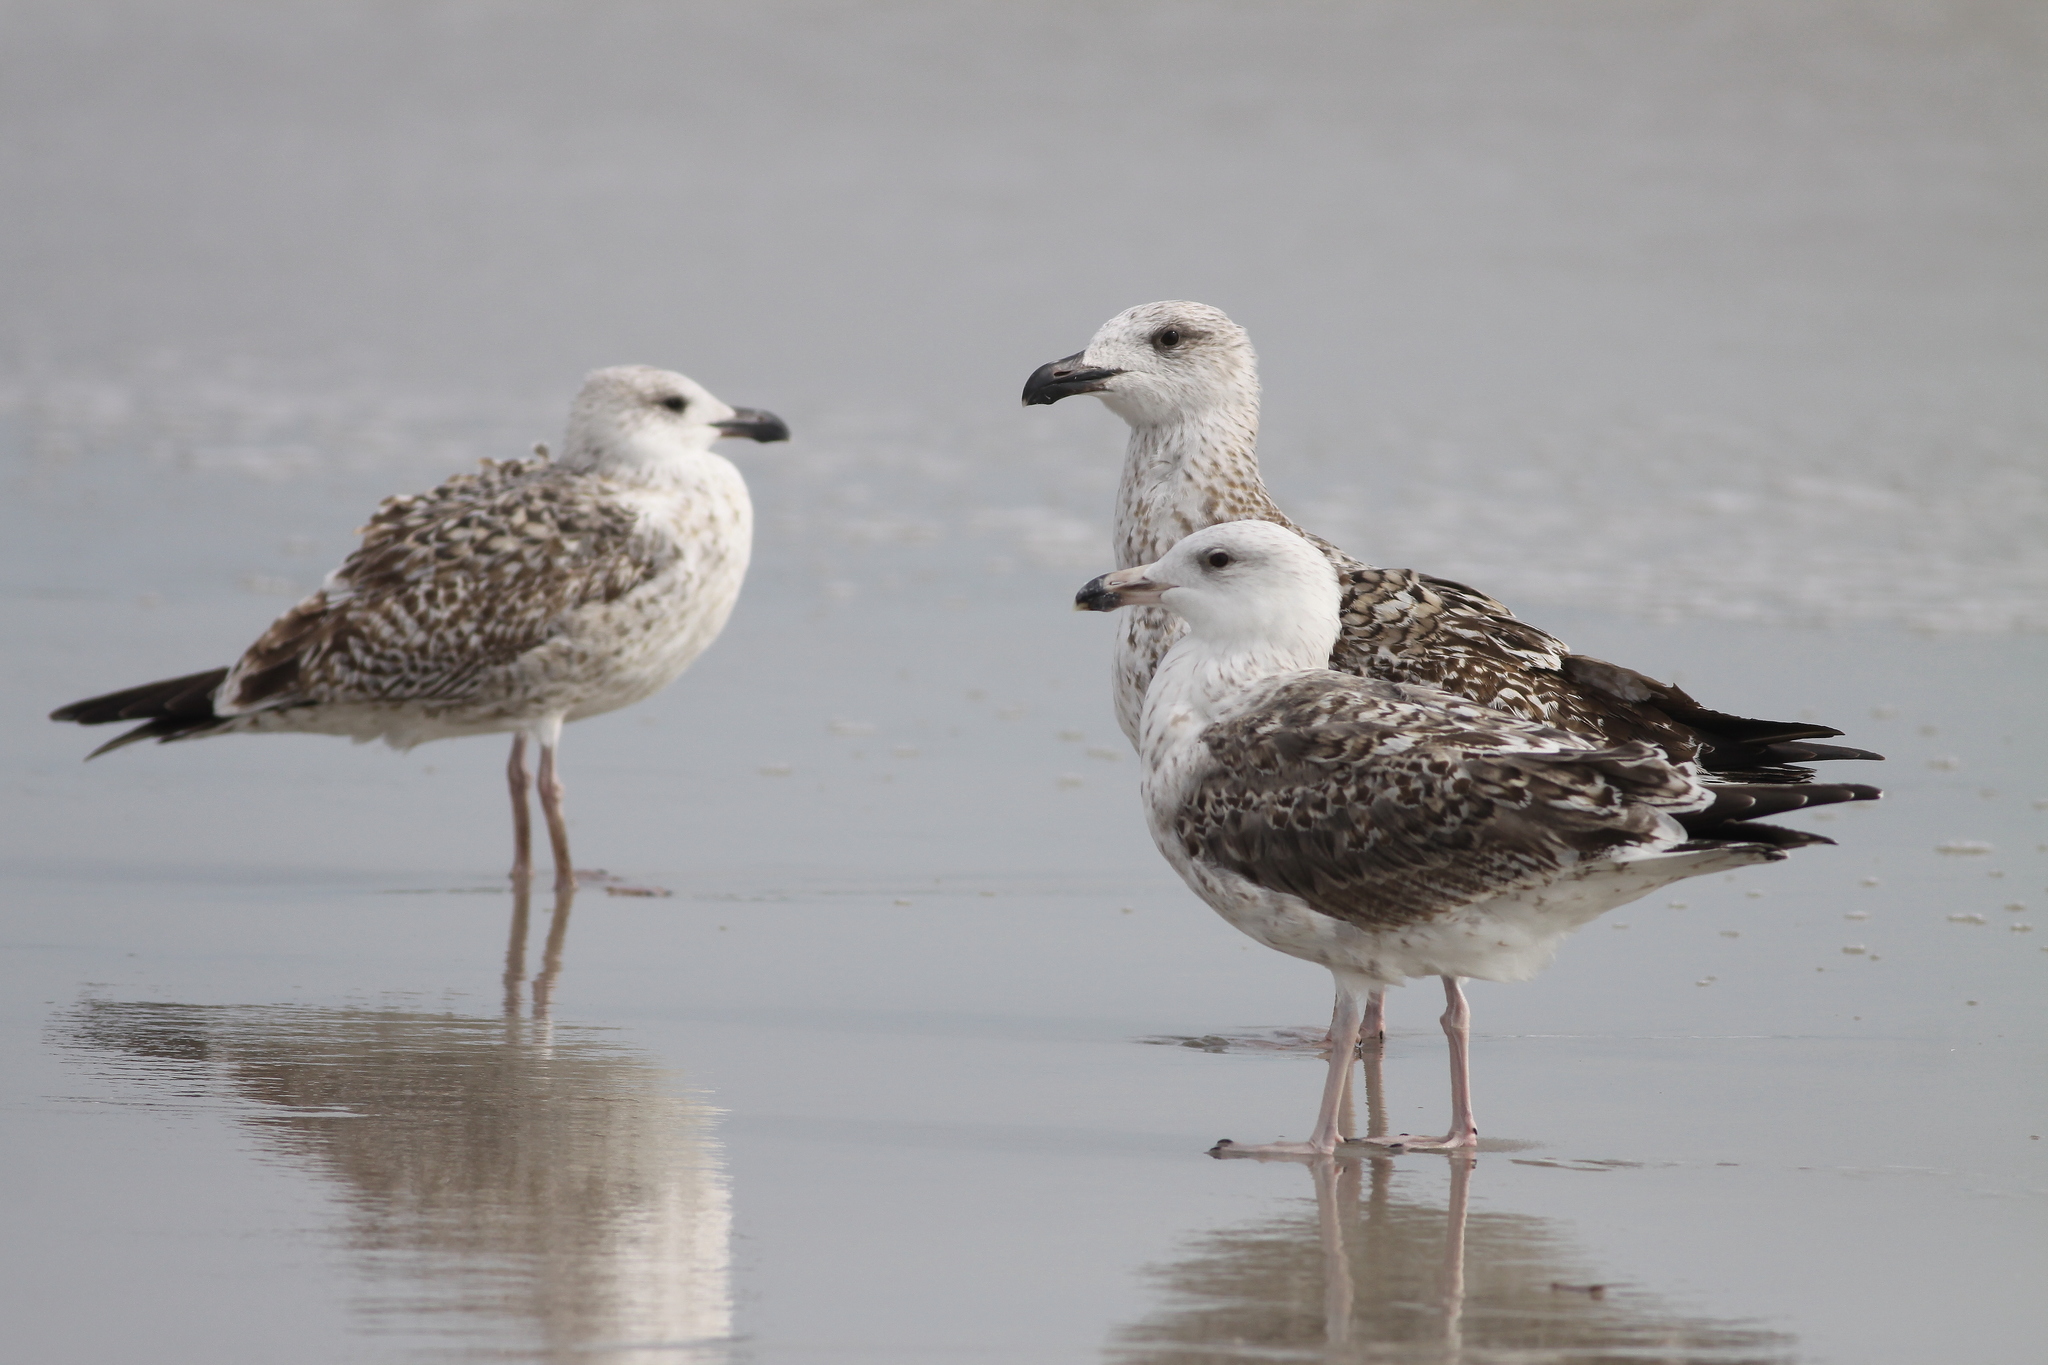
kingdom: Animalia
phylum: Chordata
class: Aves
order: Charadriiformes
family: Laridae
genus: Larus
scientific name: Larus marinus
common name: Great black-backed gull
